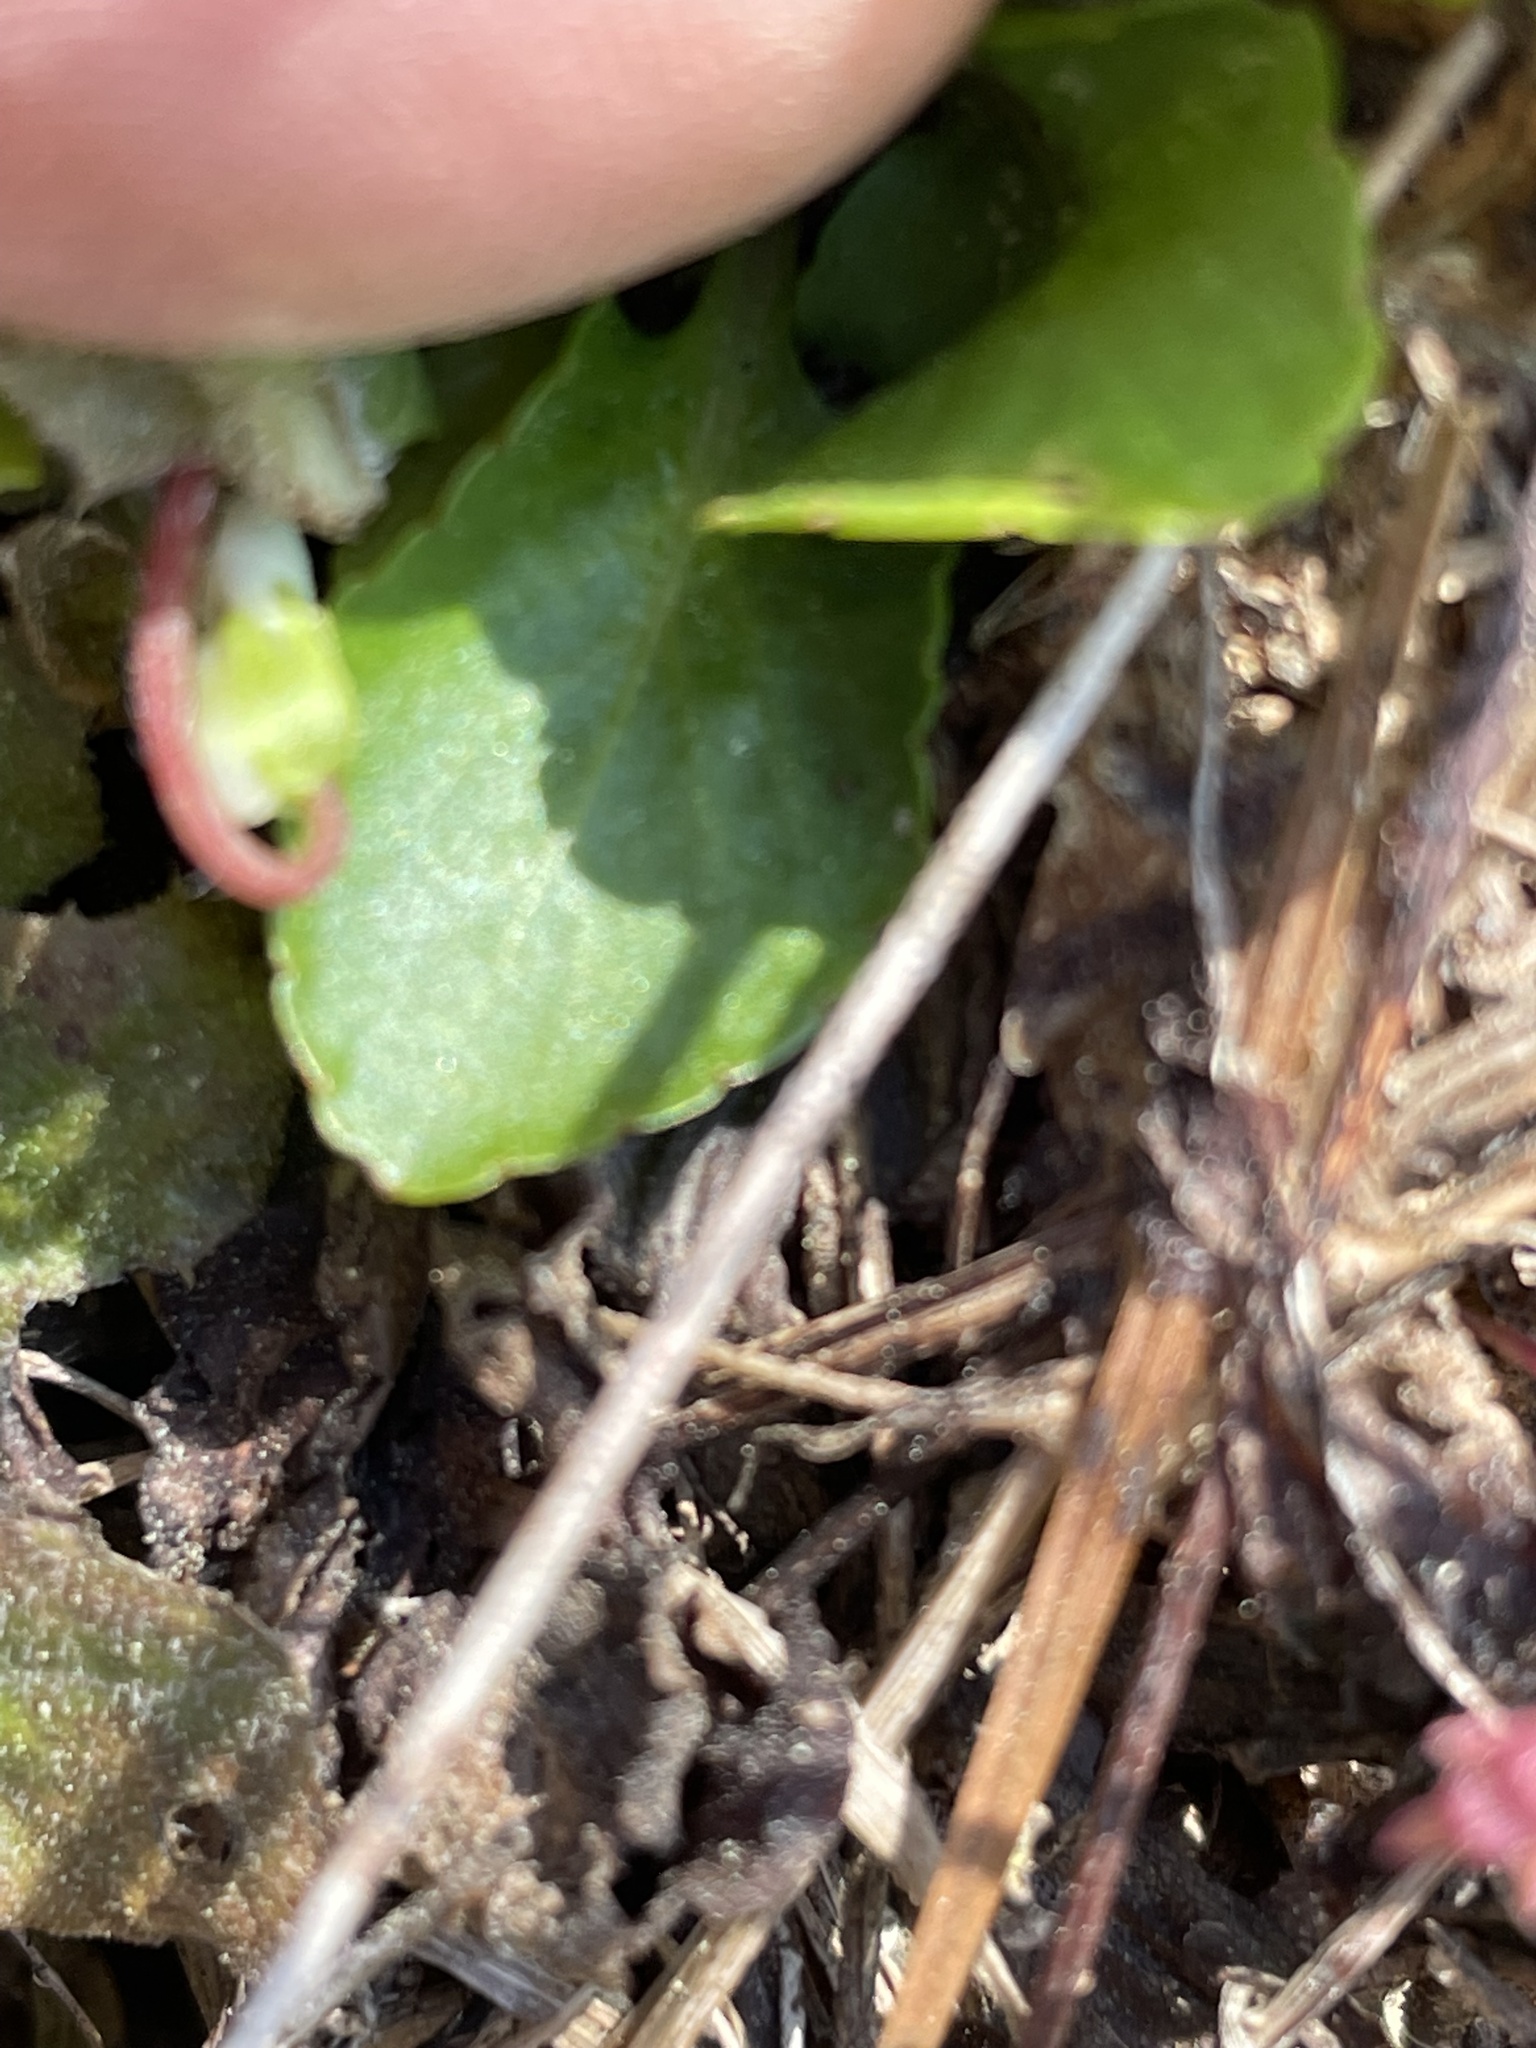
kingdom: Plantae
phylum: Tracheophyta
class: Magnoliopsida
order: Malpighiales
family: Violaceae
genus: Viola
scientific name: Viola primulifolia
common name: Primrose-leaf violet
